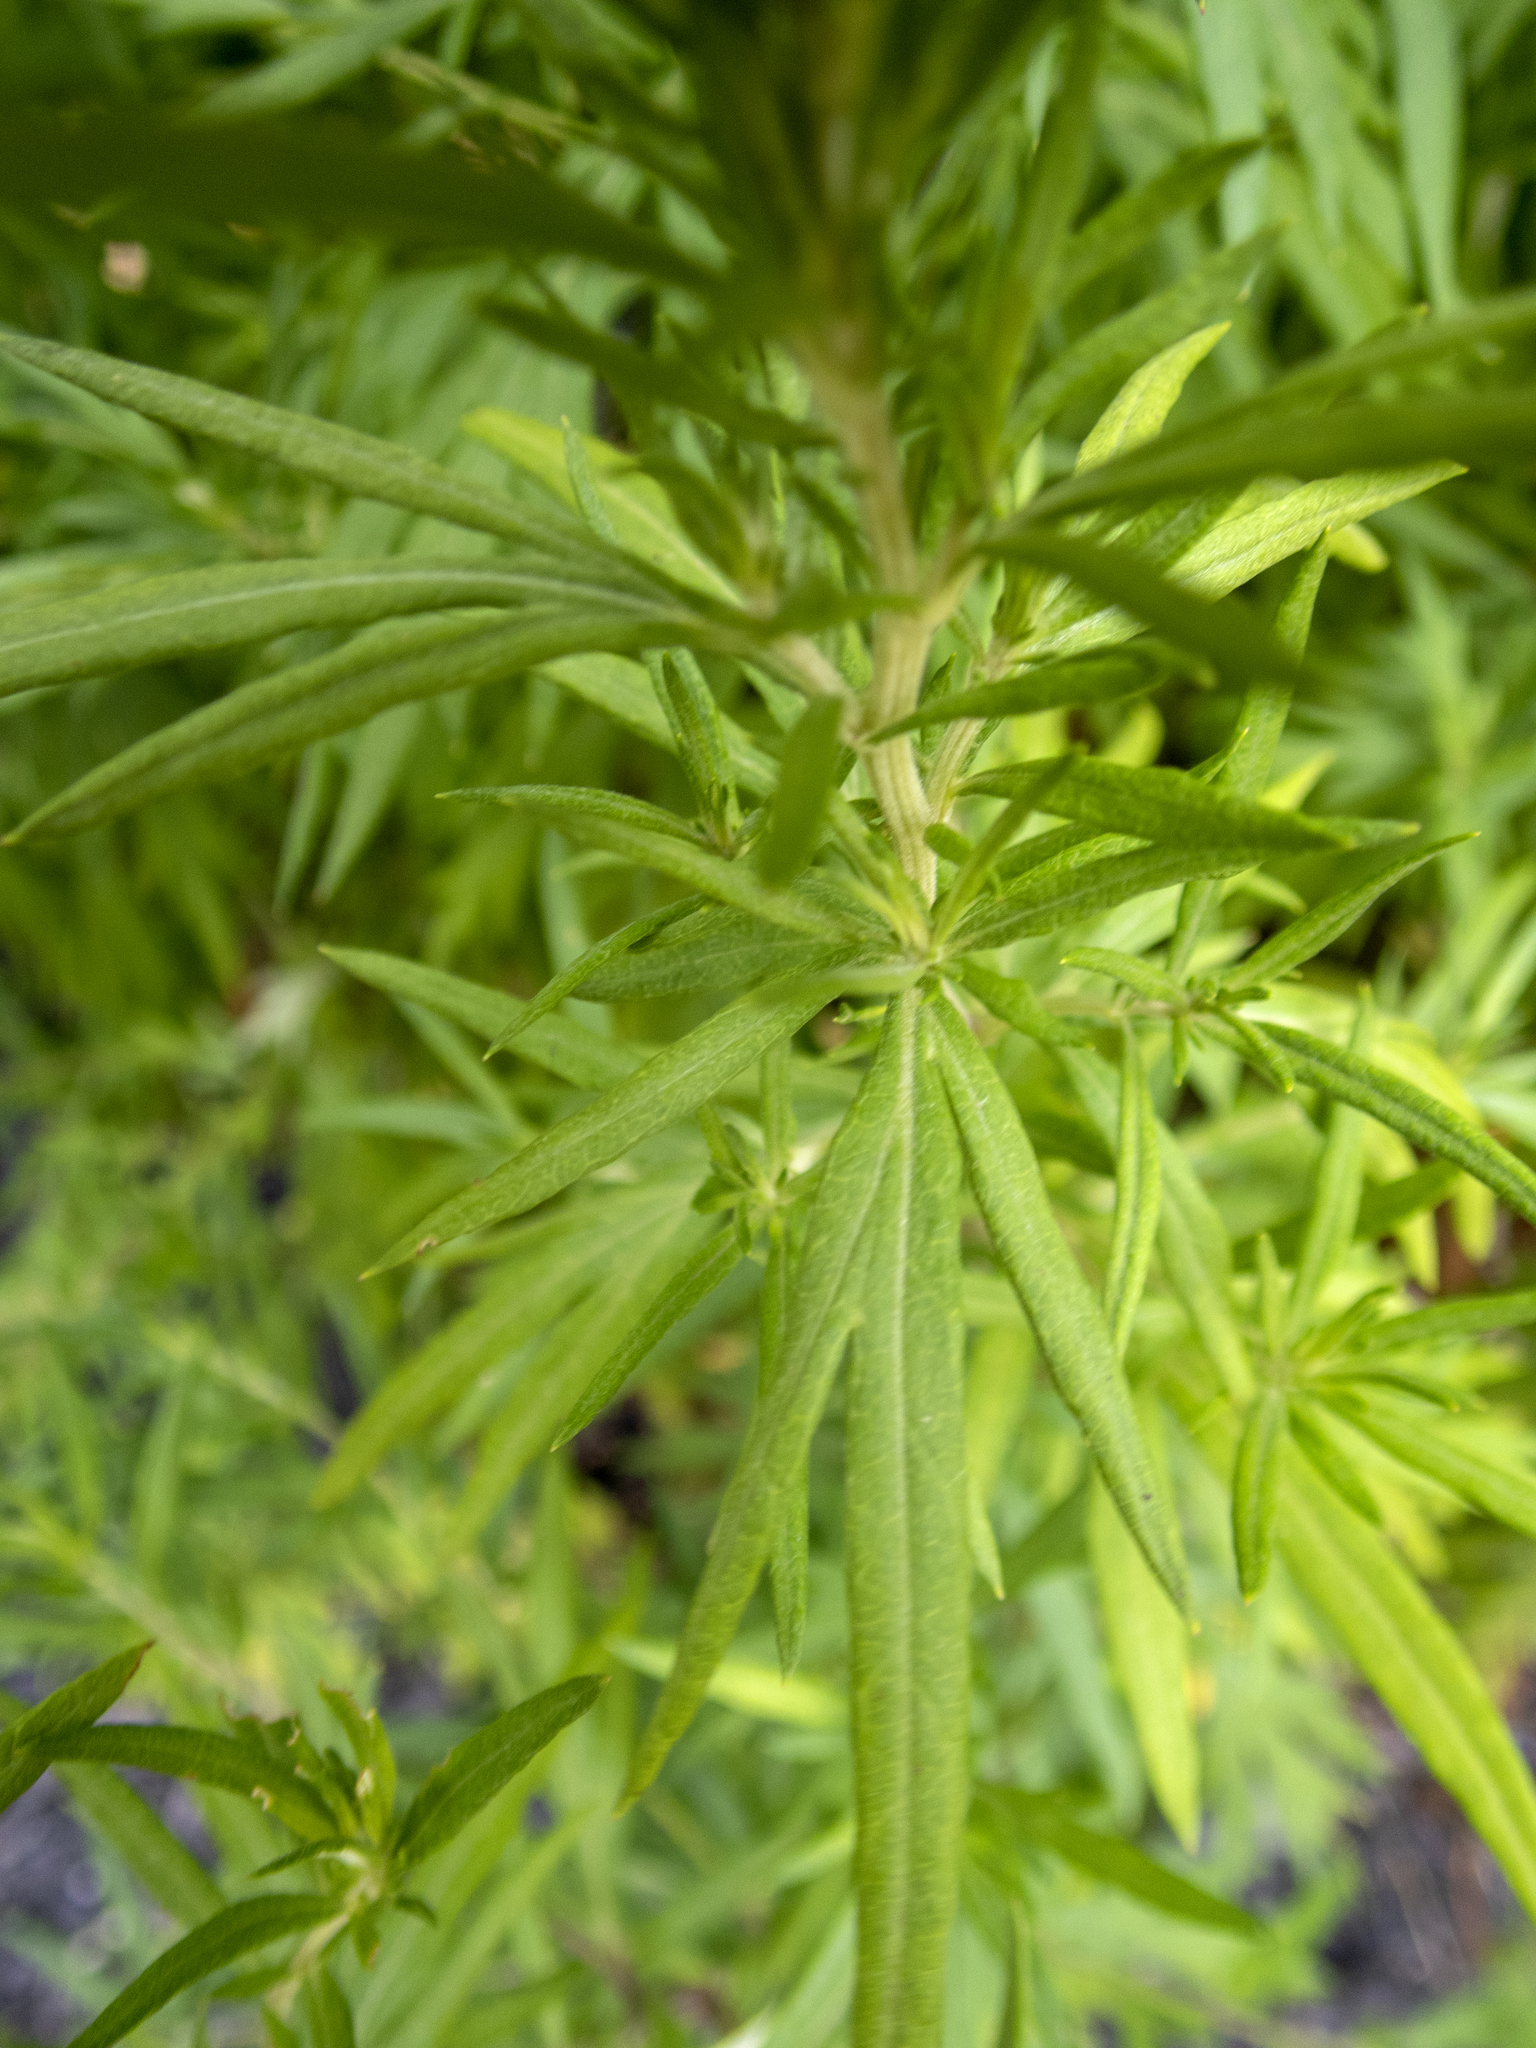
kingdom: Plantae
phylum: Tracheophyta
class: Magnoliopsida
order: Asterales
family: Asteraceae
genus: Artemisia
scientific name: Artemisia vulgaris
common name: Mugwort
